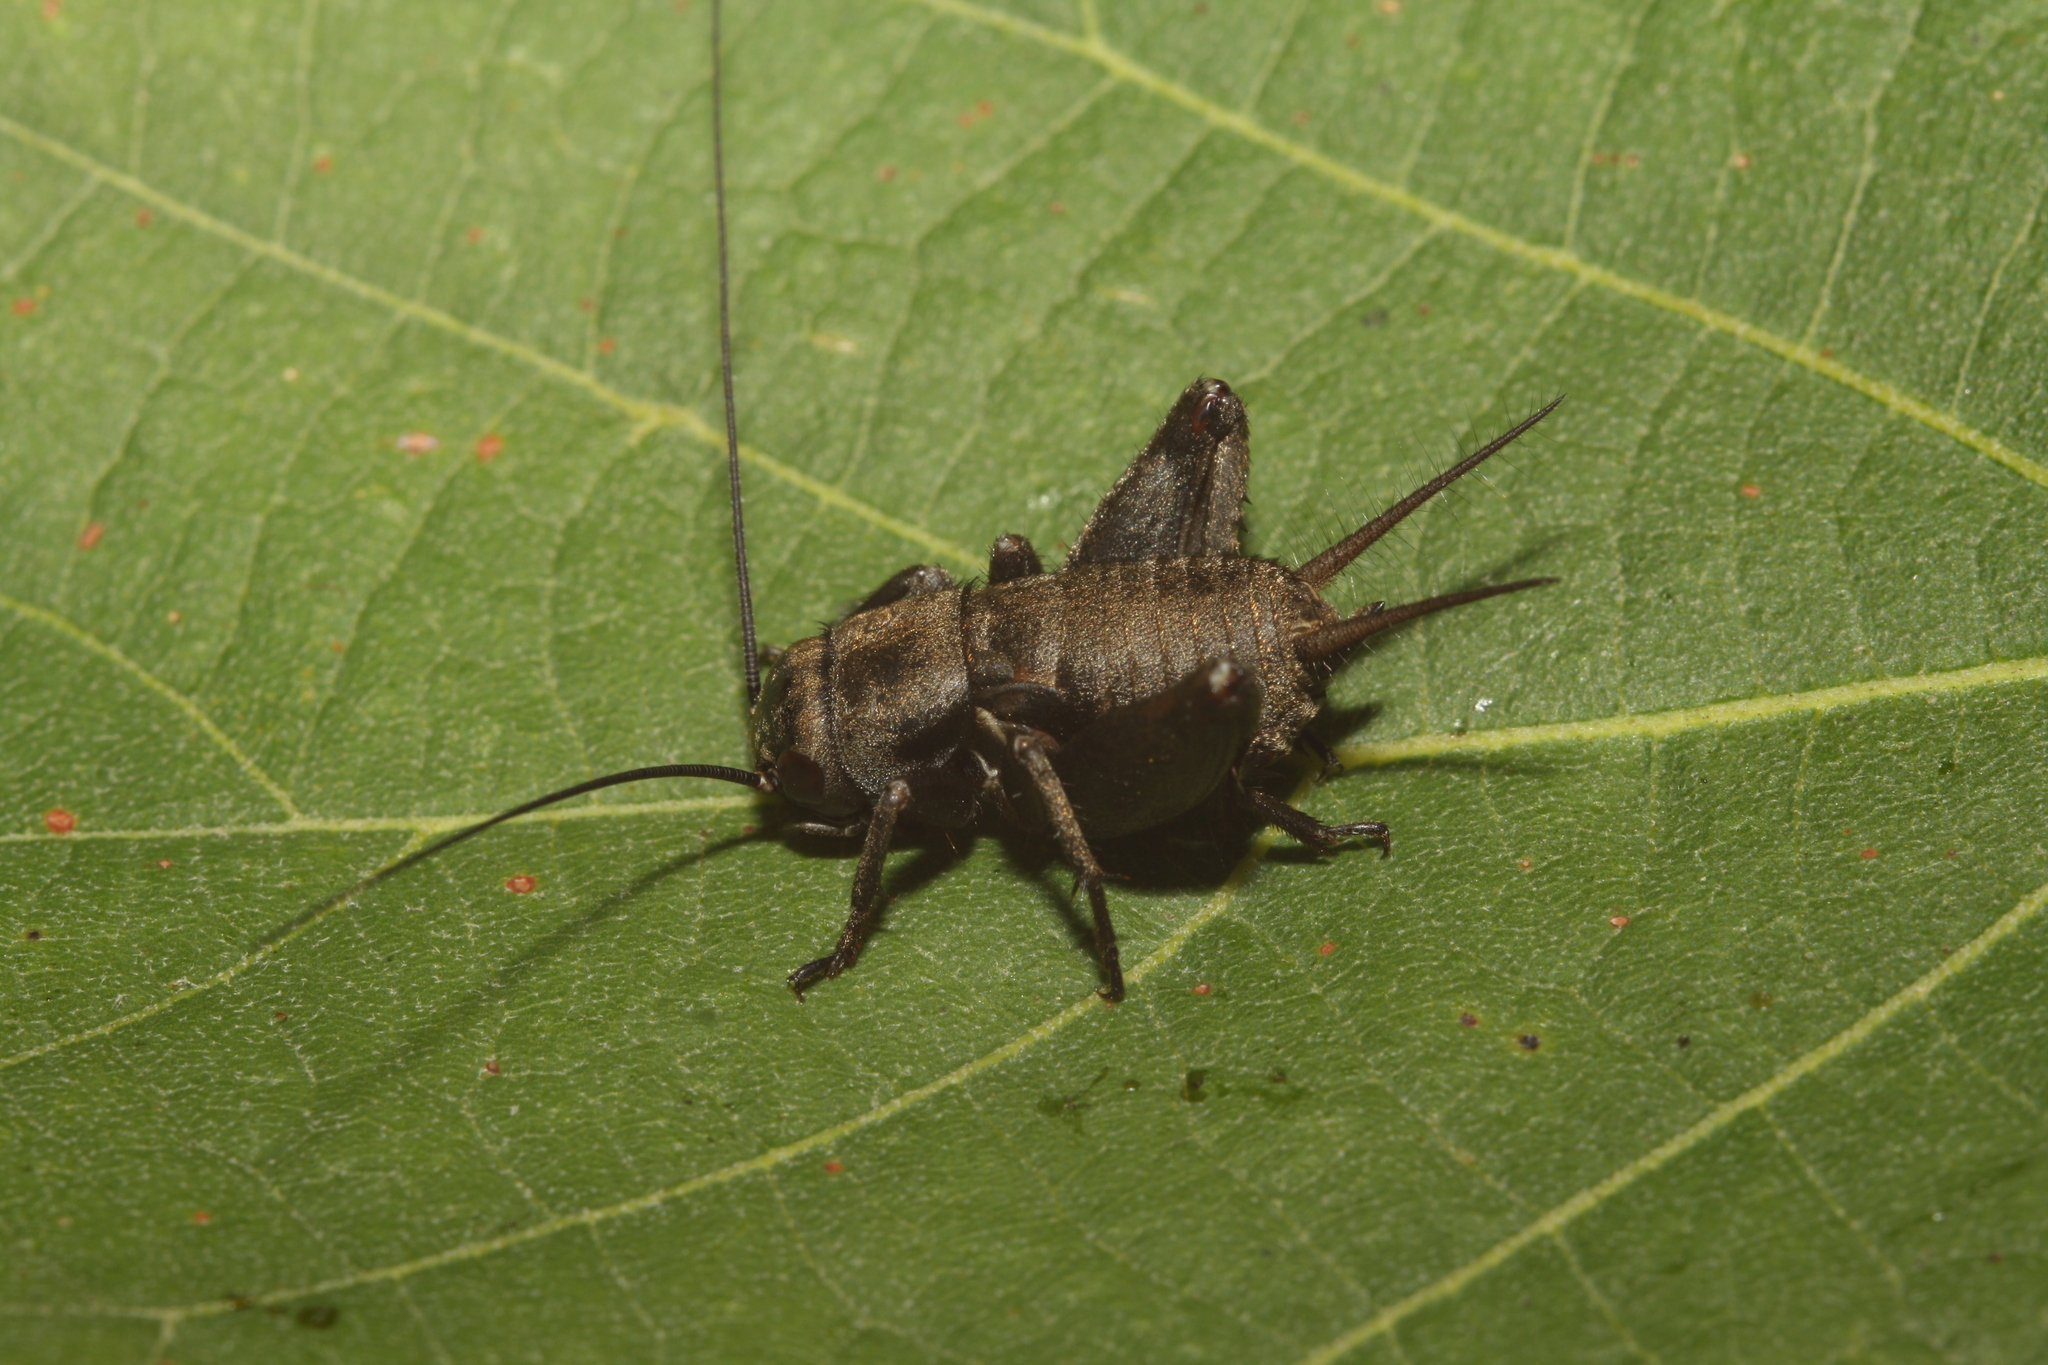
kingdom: Animalia
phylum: Arthropoda
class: Insecta
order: Orthoptera
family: Gryllidae
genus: Melanogryllus
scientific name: Melanogryllus desertus
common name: Desert cricket
